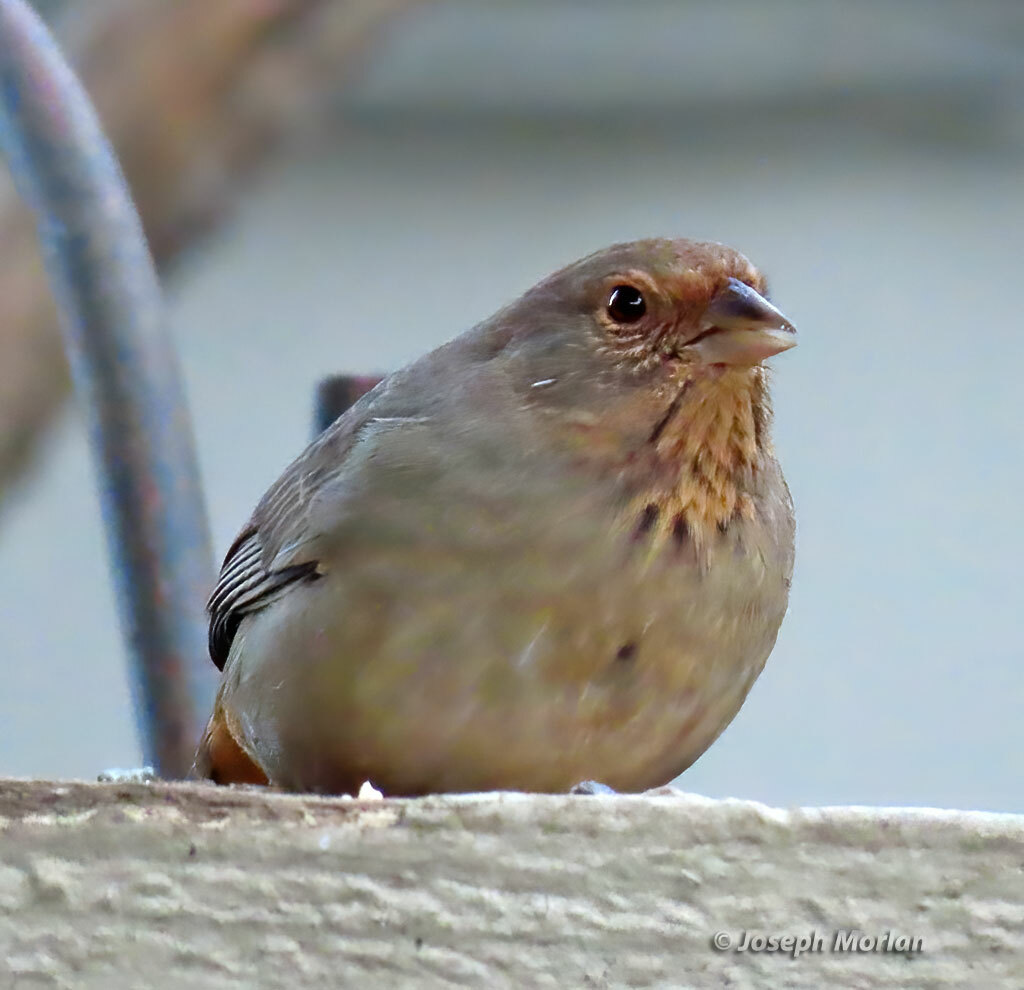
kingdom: Animalia
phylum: Chordata
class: Aves
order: Passeriformes
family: Passerellidae
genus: Melozone
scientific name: Melozone crissalis
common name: California towhee
